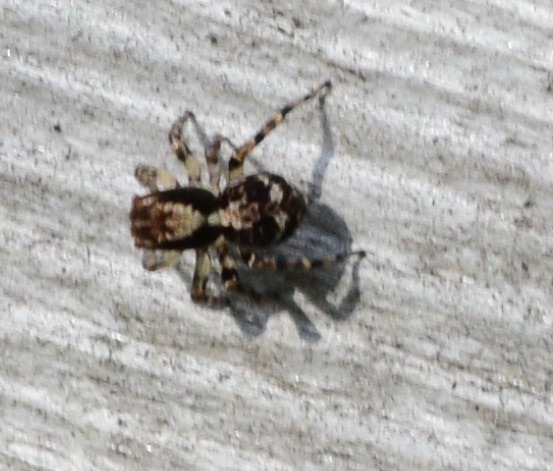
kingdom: Animalia
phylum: Arthropoda
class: Arachnida
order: Araneae
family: Salticidae
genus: Naphrys
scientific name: Naphrys pulex
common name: Flea jumping spider
